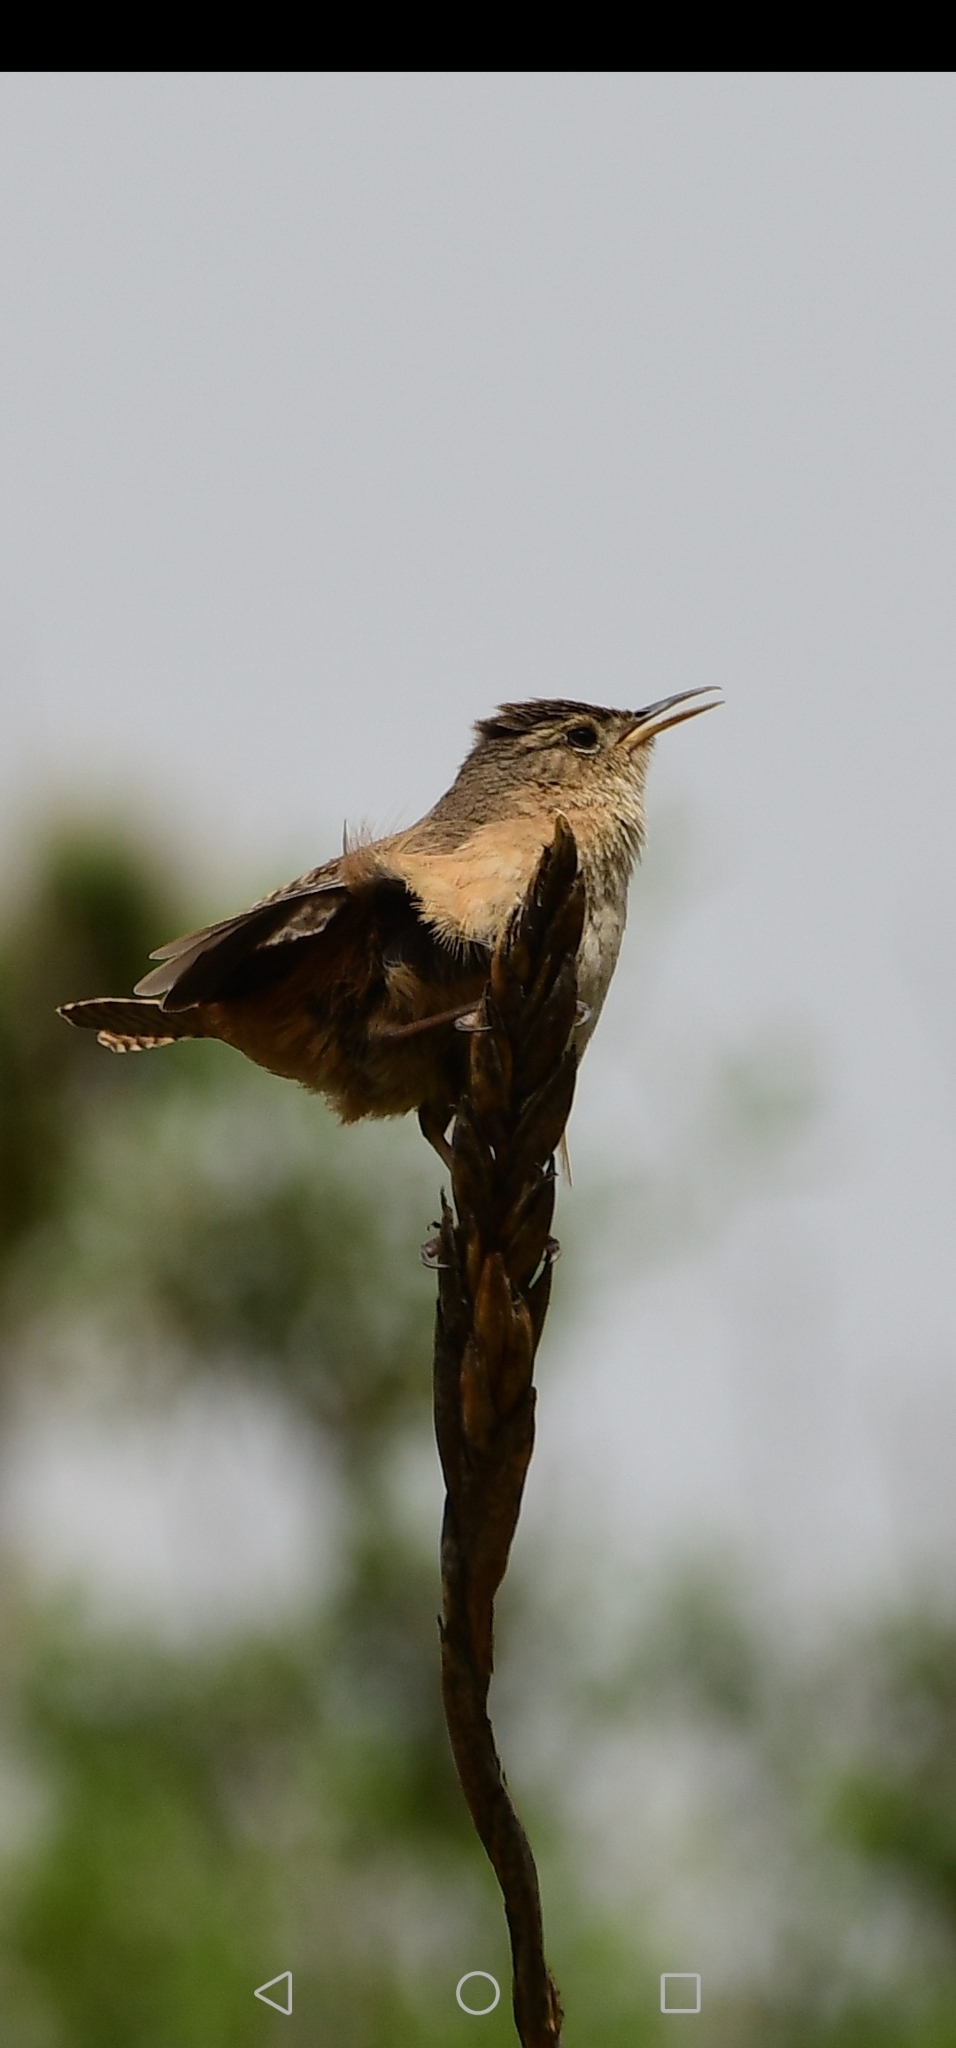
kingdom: Animalia
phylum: Chordata
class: Aves
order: Passeriformes
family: Troglodytidae
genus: Troglodytes
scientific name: Troglodytes aedon
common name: House wren
